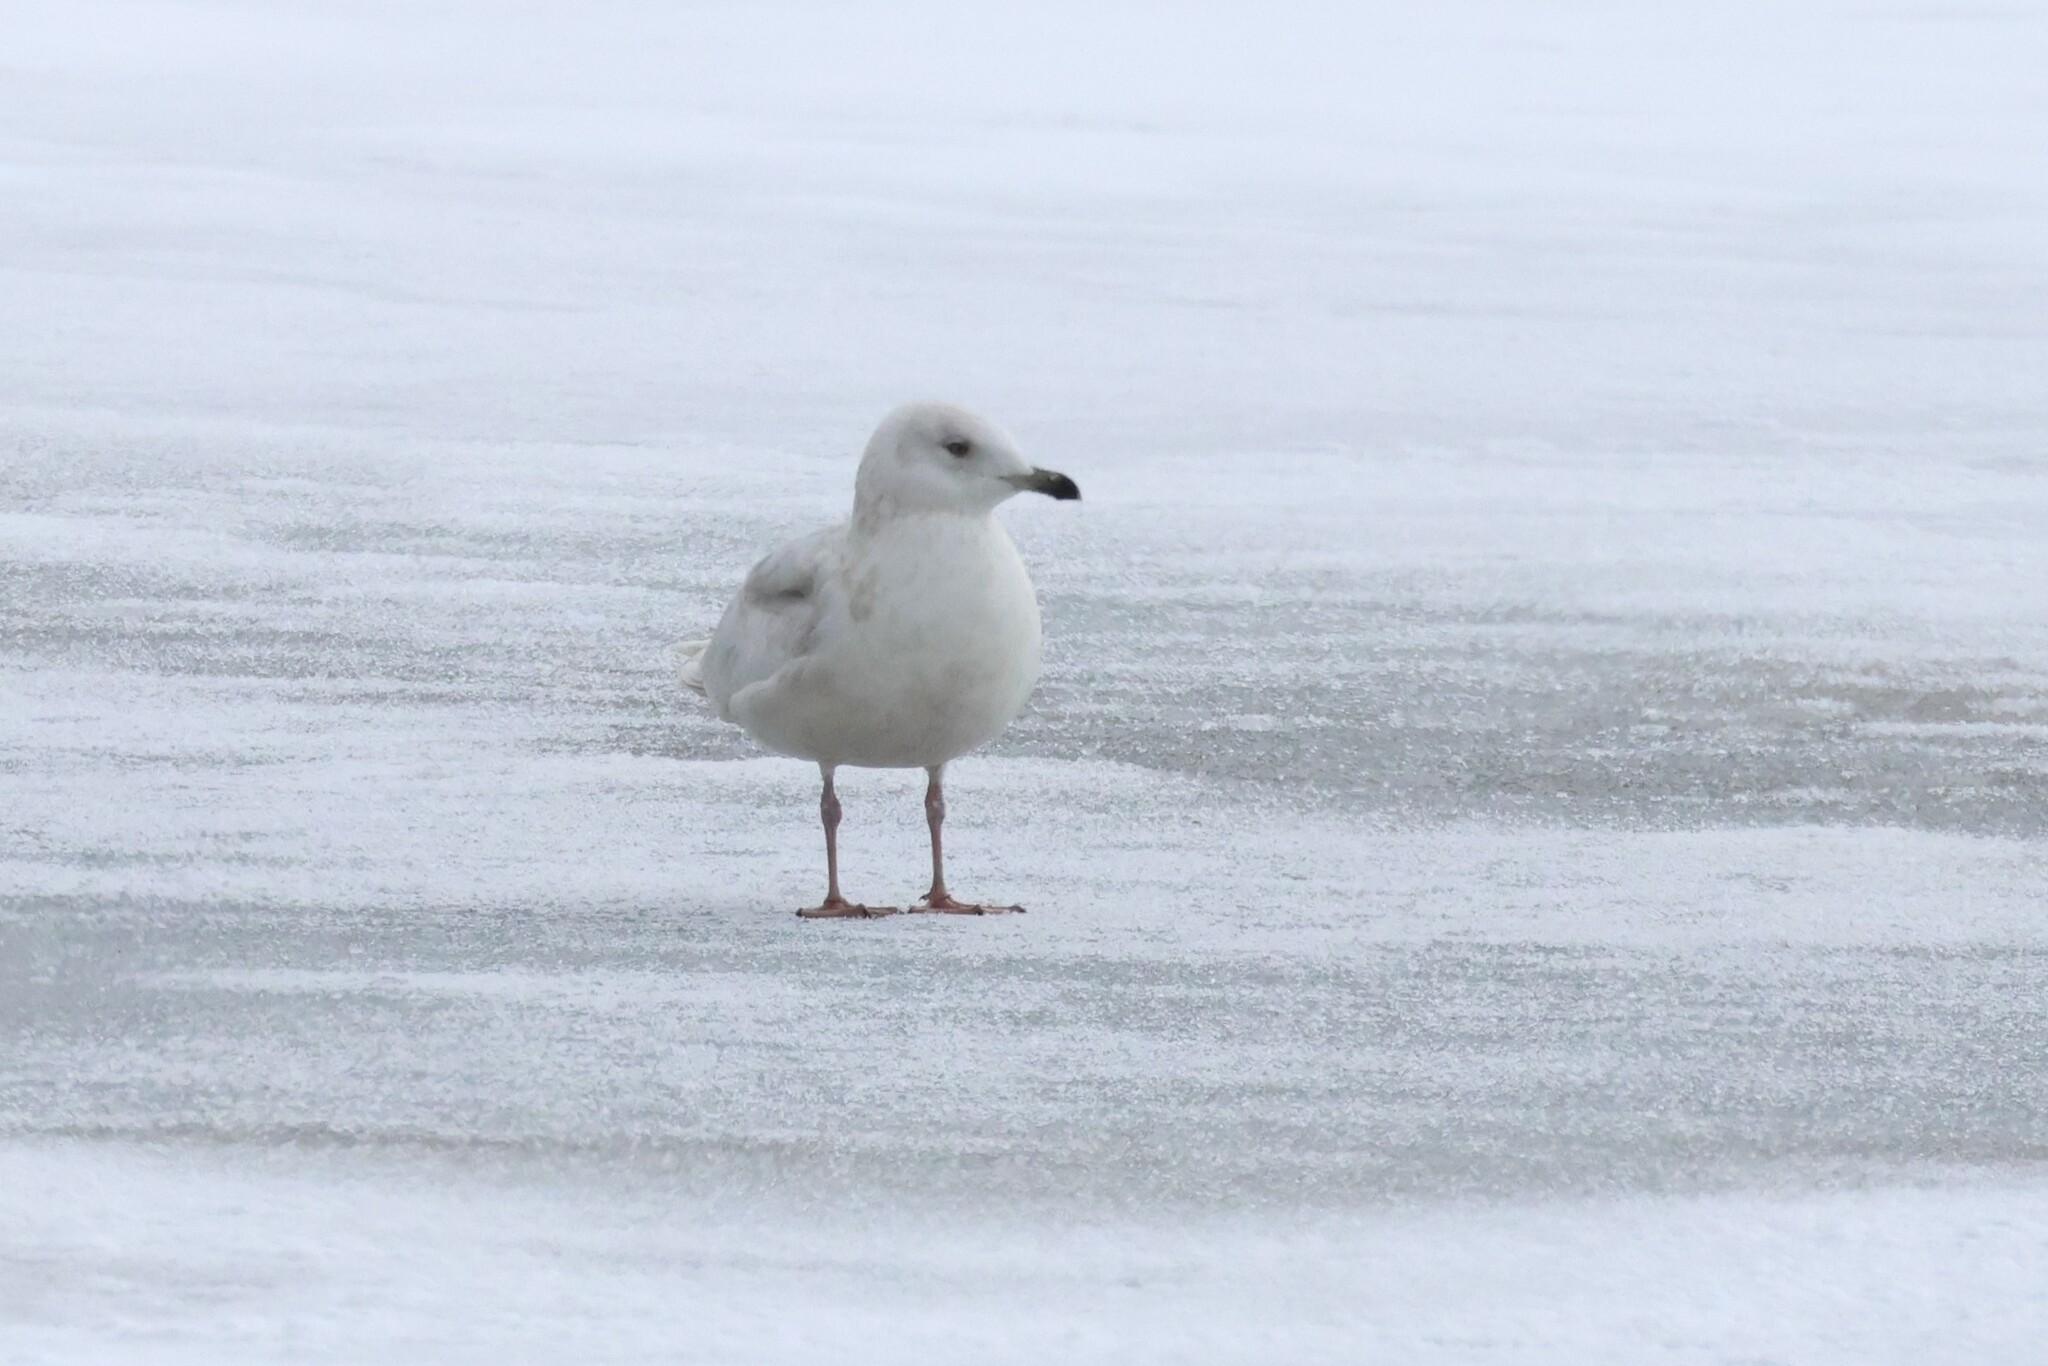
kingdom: Animalia
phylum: Chordata
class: Aves
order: Charadriiformes
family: Laridae
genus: Larus
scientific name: Larus glaucoides
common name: Iceland gull
